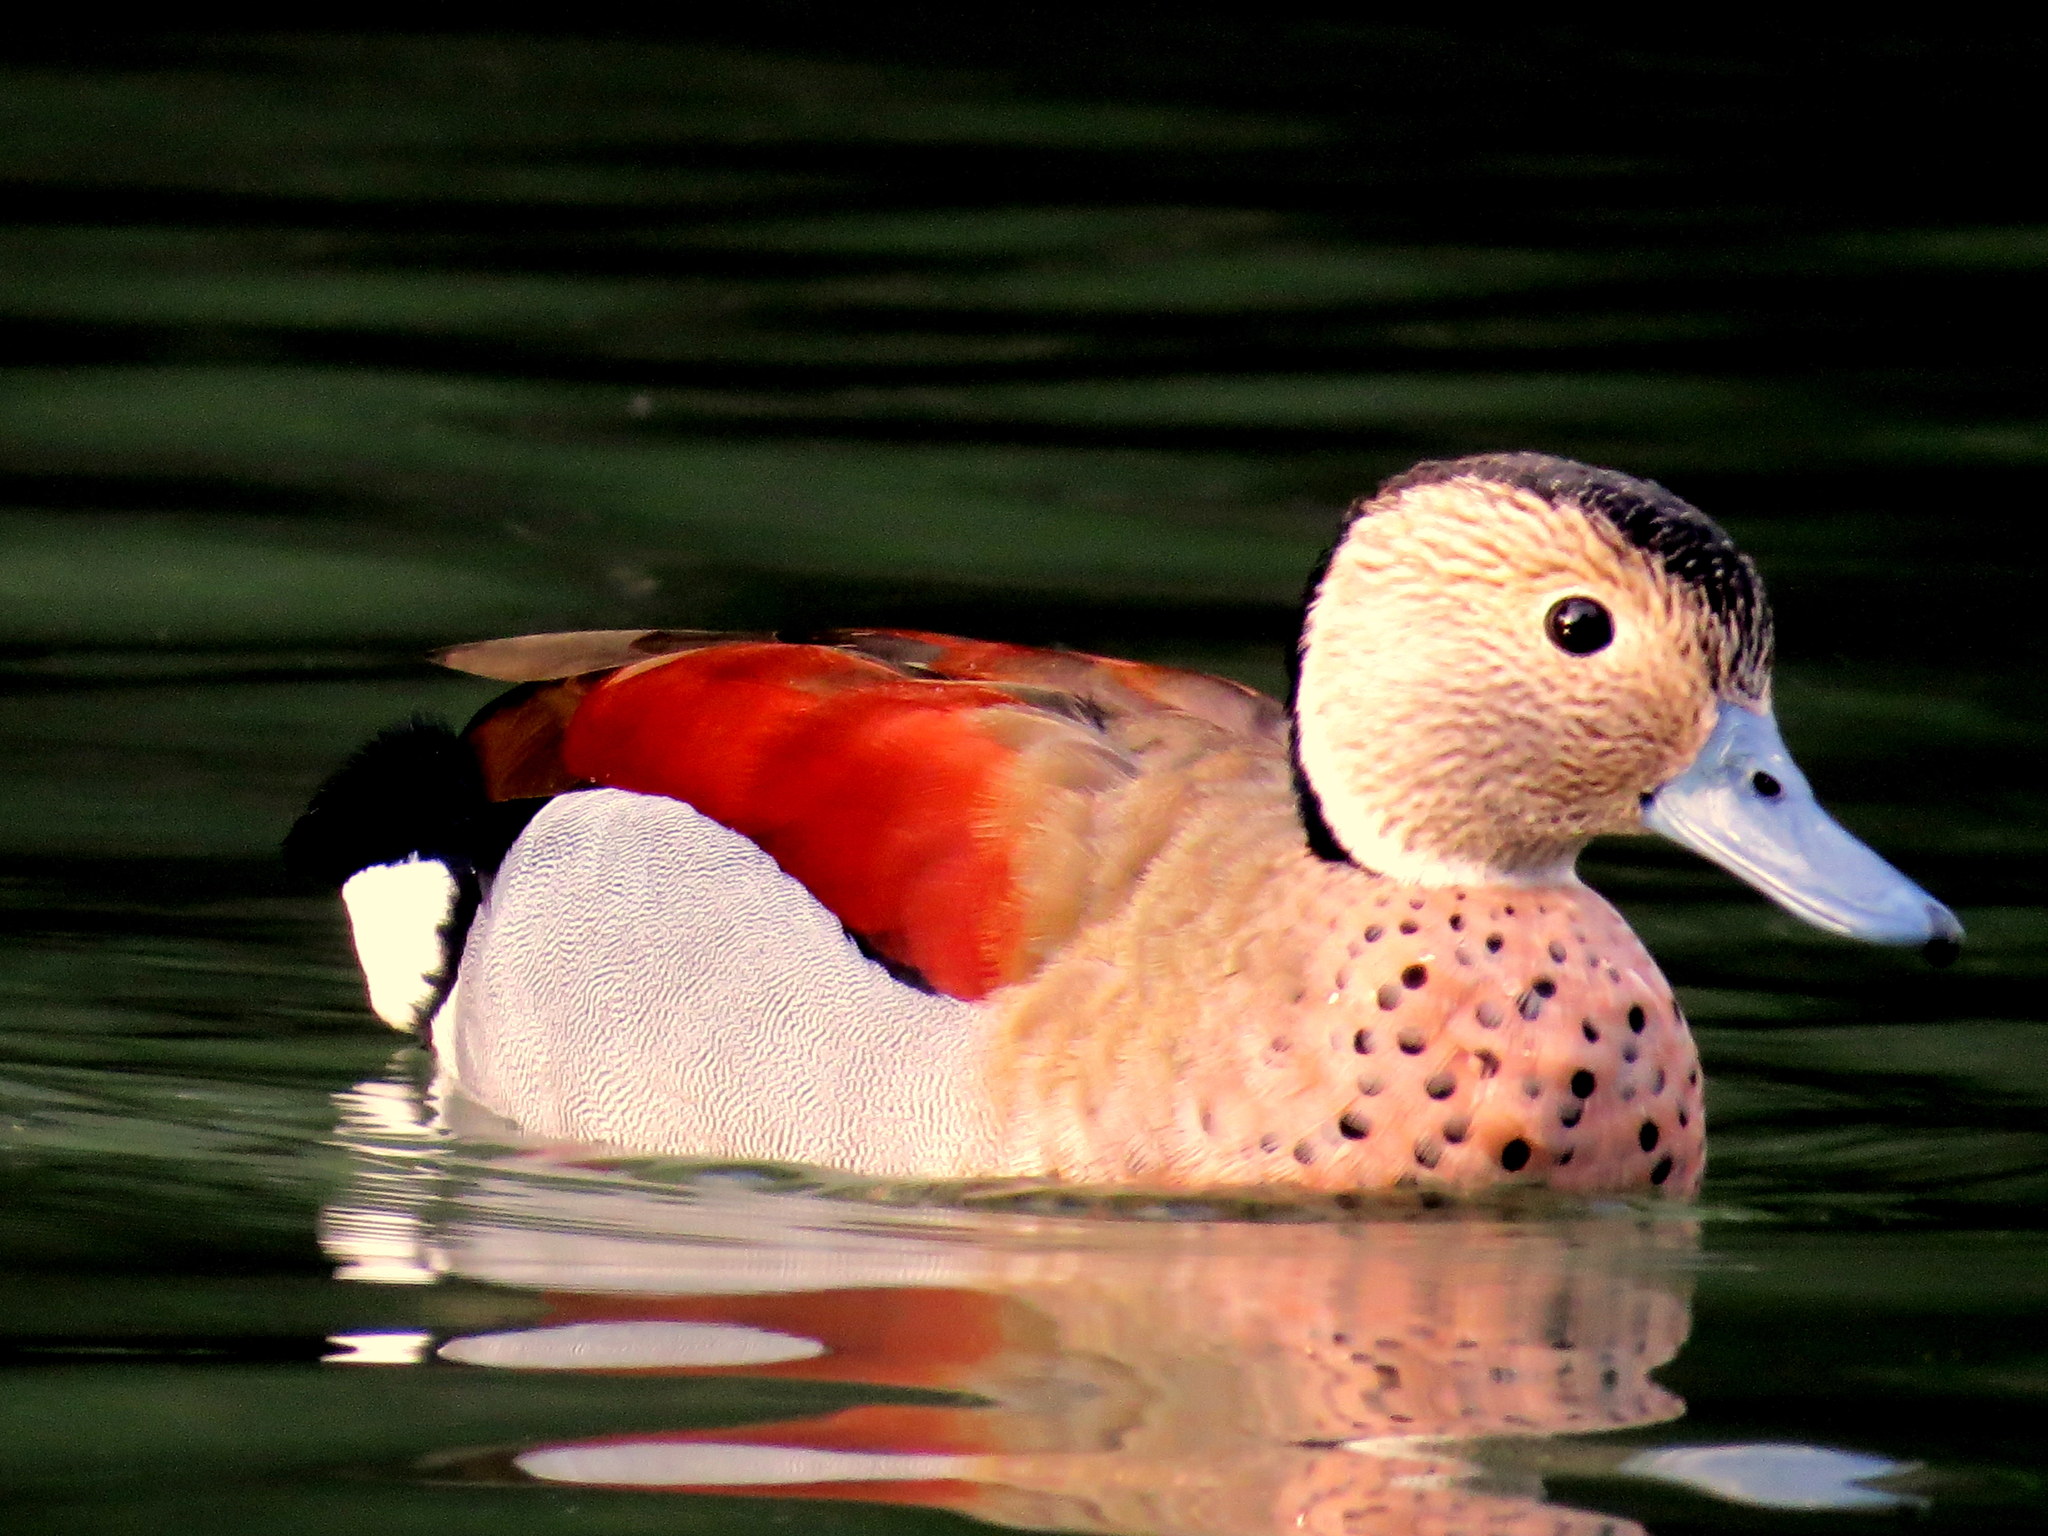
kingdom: Animalia
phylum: Chordata
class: Aves
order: Anseriformes
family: Anatidae
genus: Callonetta
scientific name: Callonetta leucophrys
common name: Ringed teal
